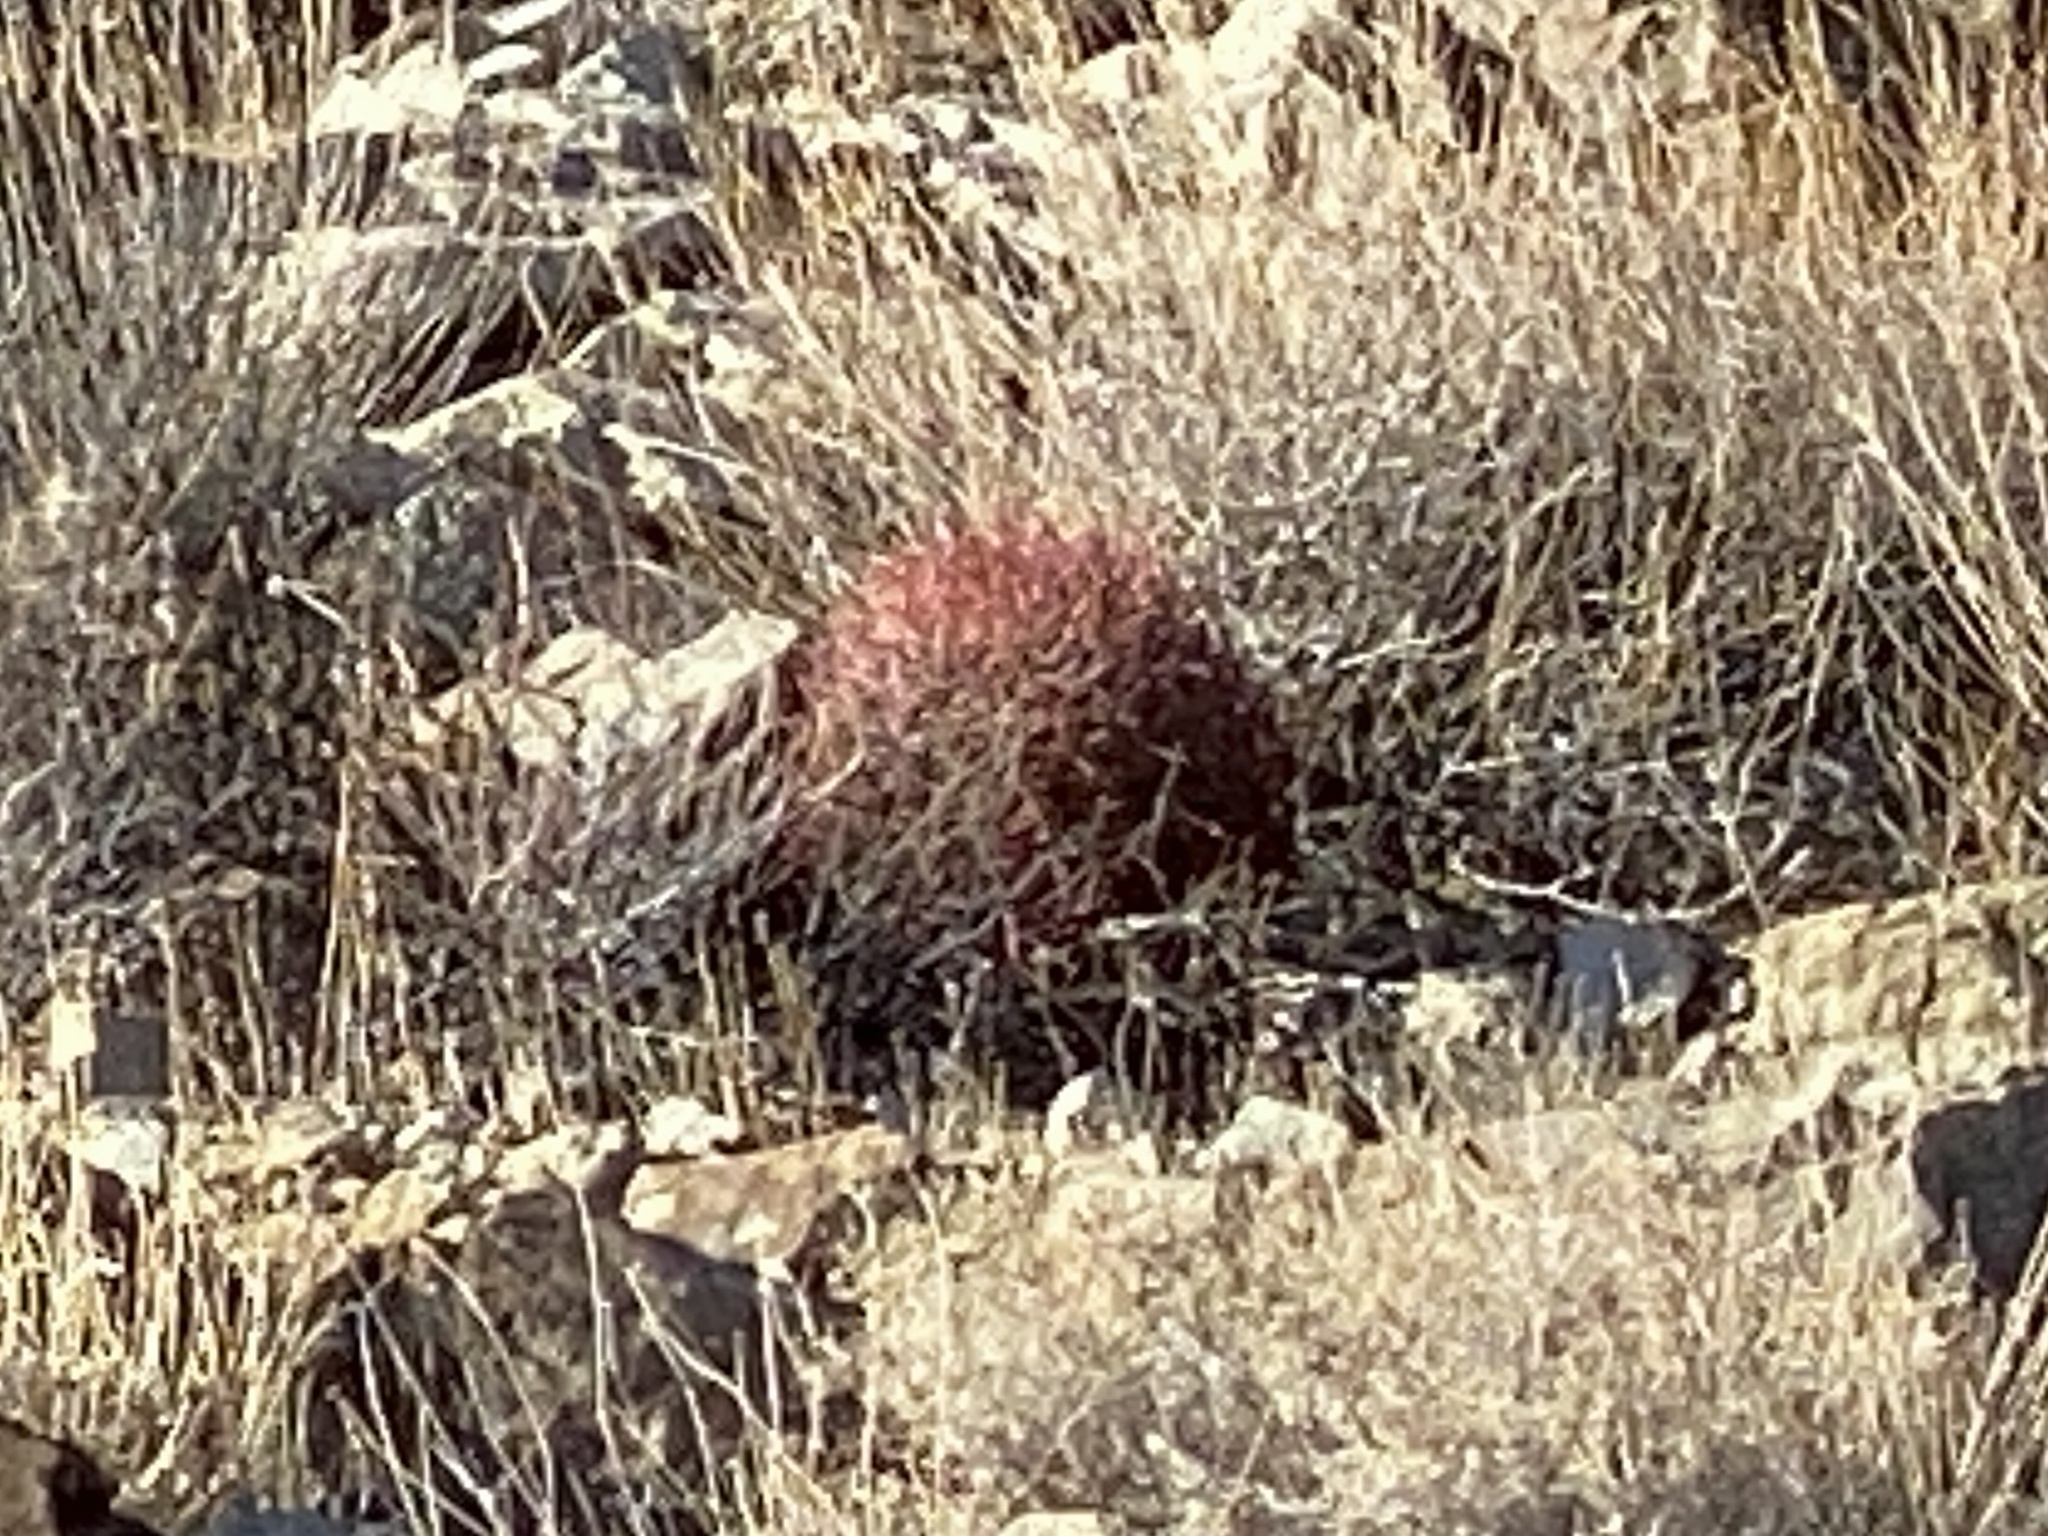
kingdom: Plantae
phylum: Tracheophyta
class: Magnoliopsida
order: Caryophyllales
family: Cactaceae
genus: Ferocactus
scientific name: Ferocactus cylindraceus
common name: California barrel cactus
